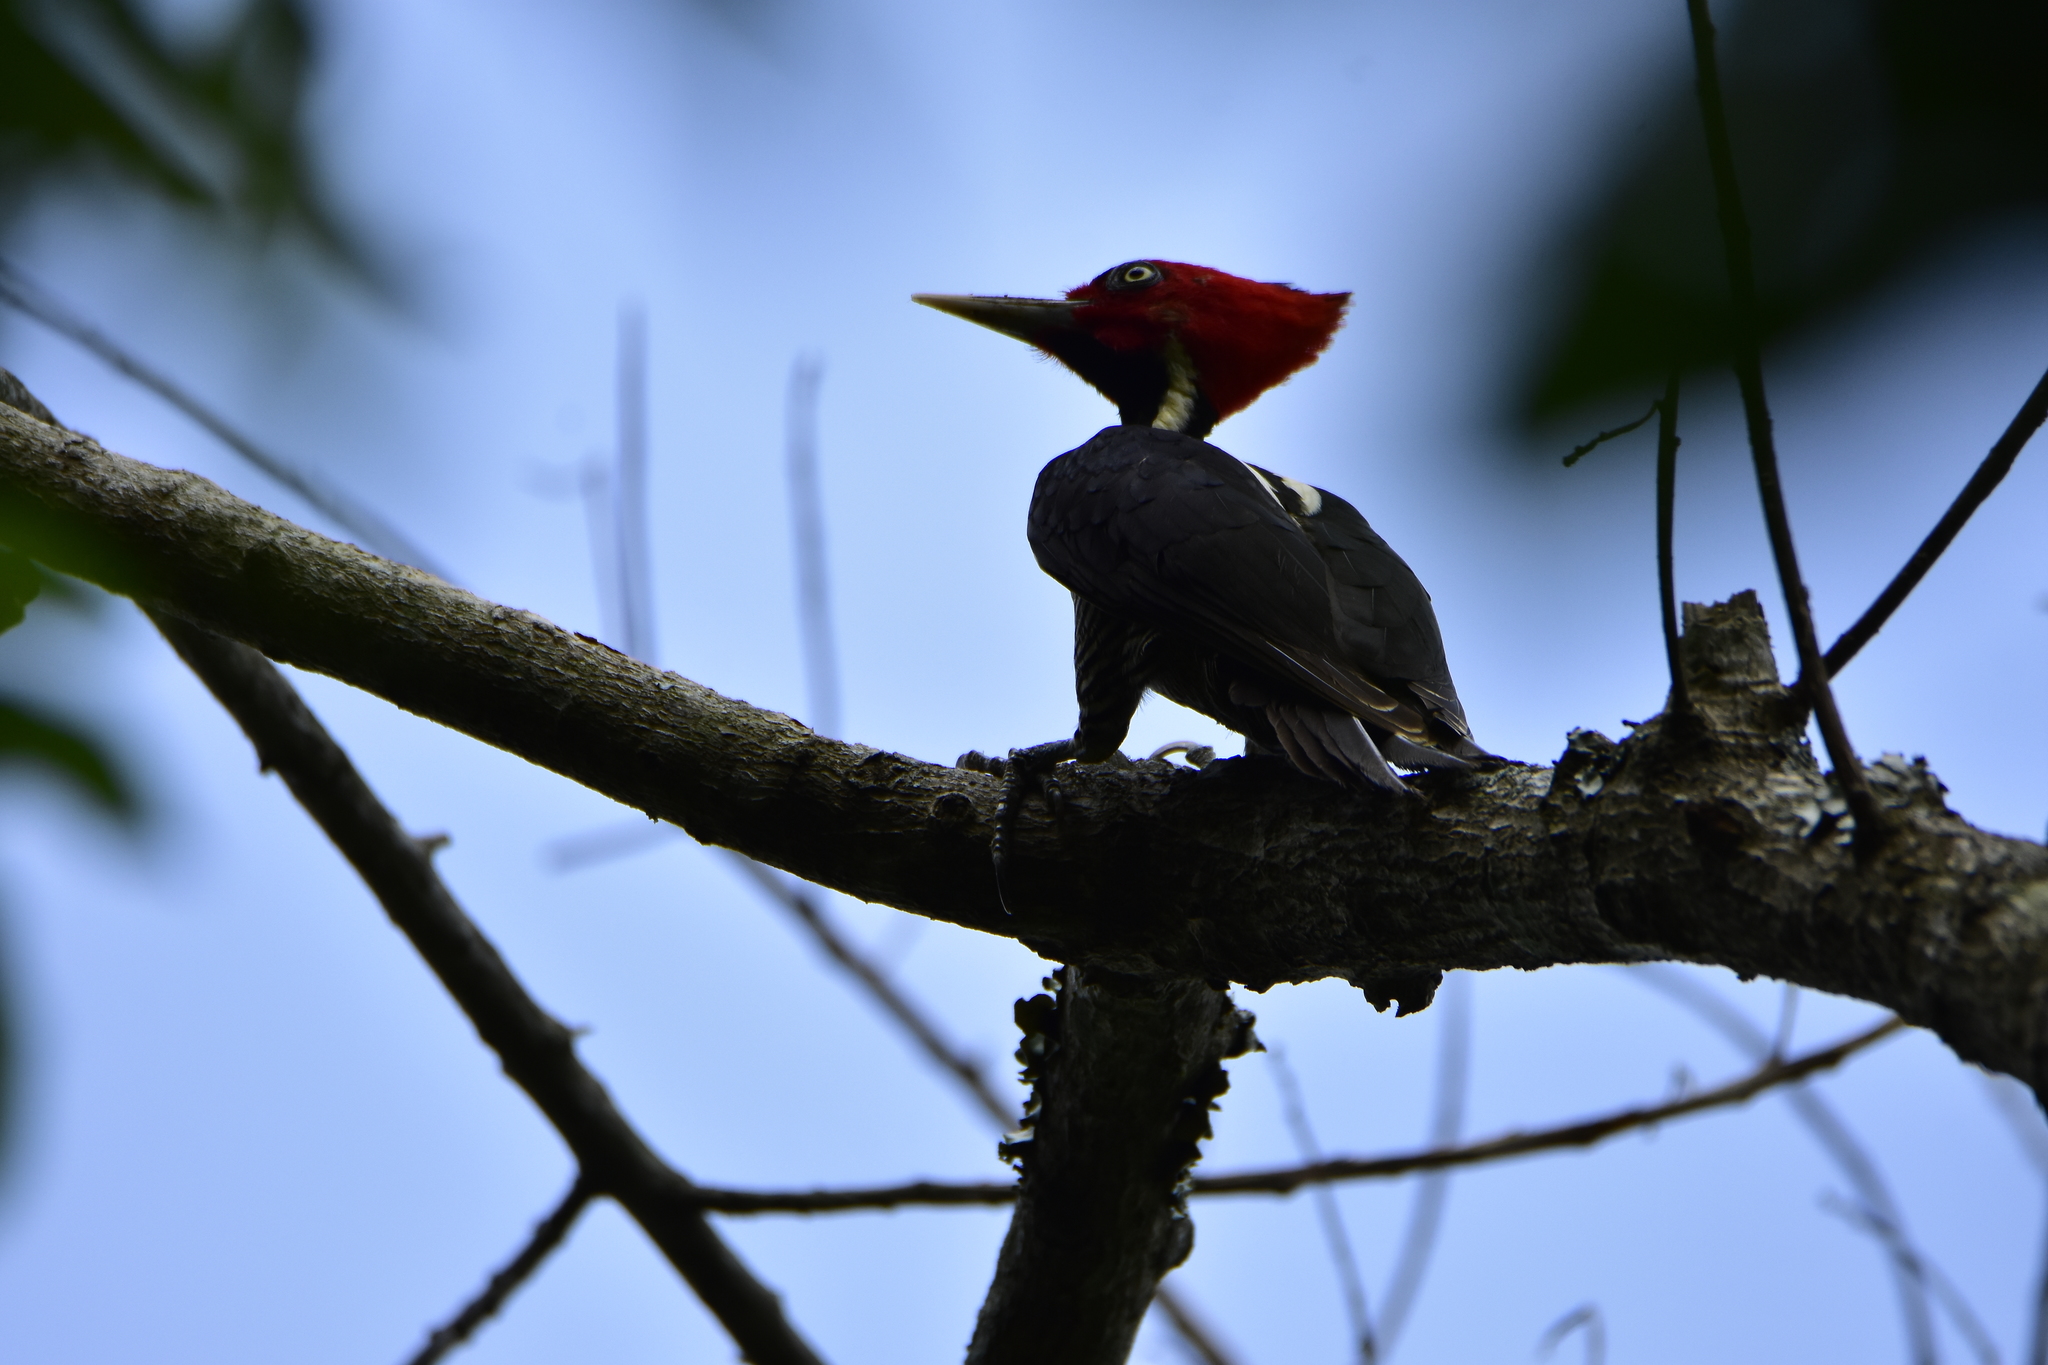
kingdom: Animalia
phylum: Chordata
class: Aves
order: Piciformes
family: Picidae
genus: Campephilus
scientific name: Campephilus guatemalensis
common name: Pale-billed woodpecker
